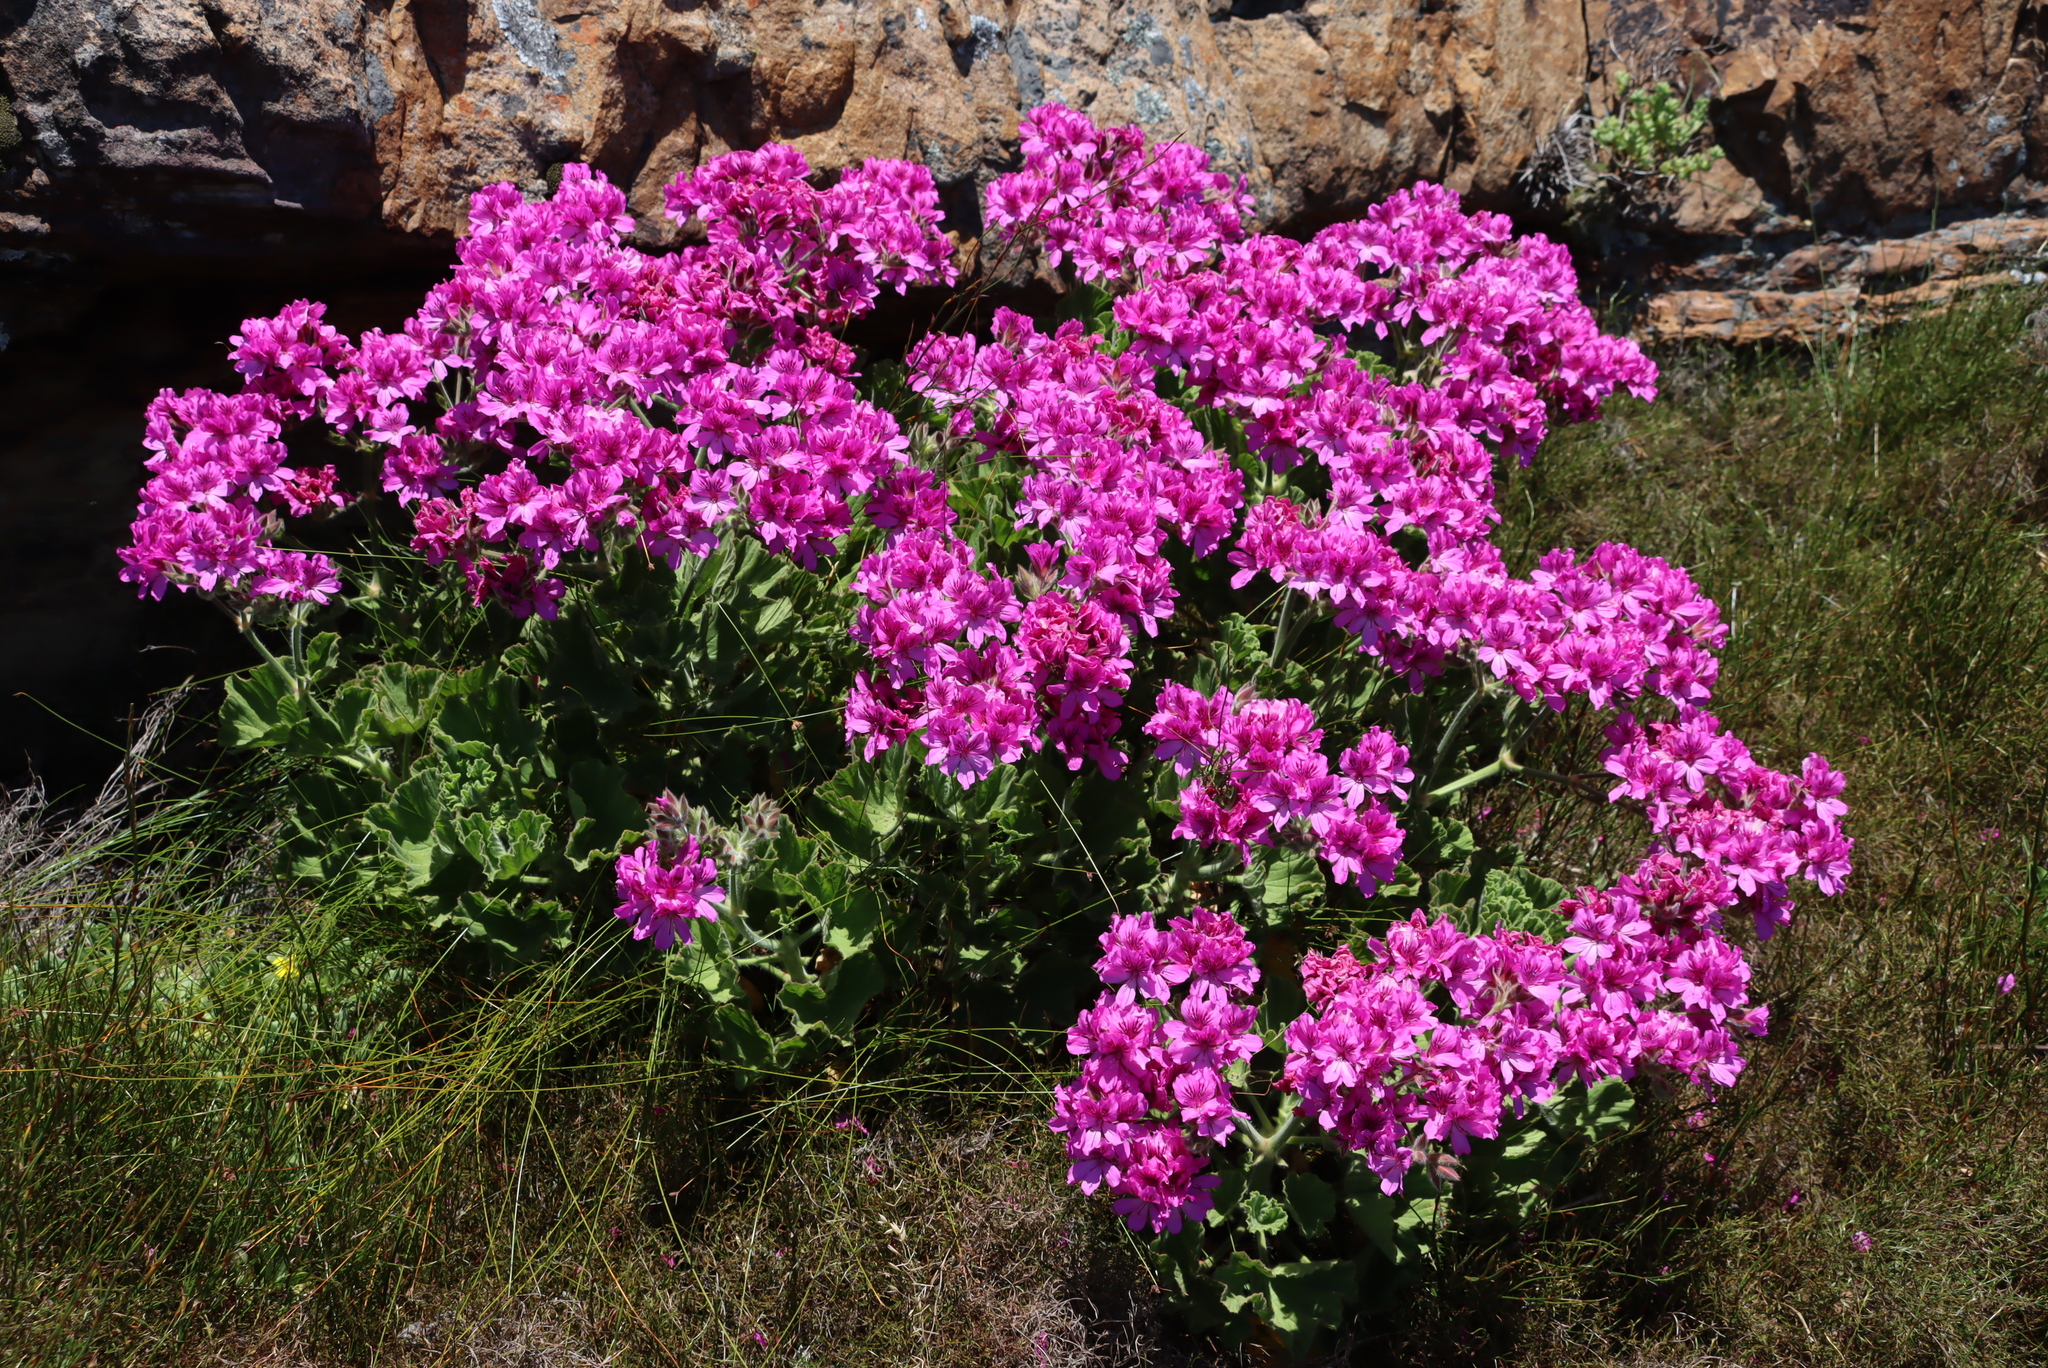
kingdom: Plantae
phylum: Tracheophyta
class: Magnoliopsida
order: Geraniales
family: Geraniaceae
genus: Pelargonium
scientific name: Pelargonium cucullatum
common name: Tree pelargonium
